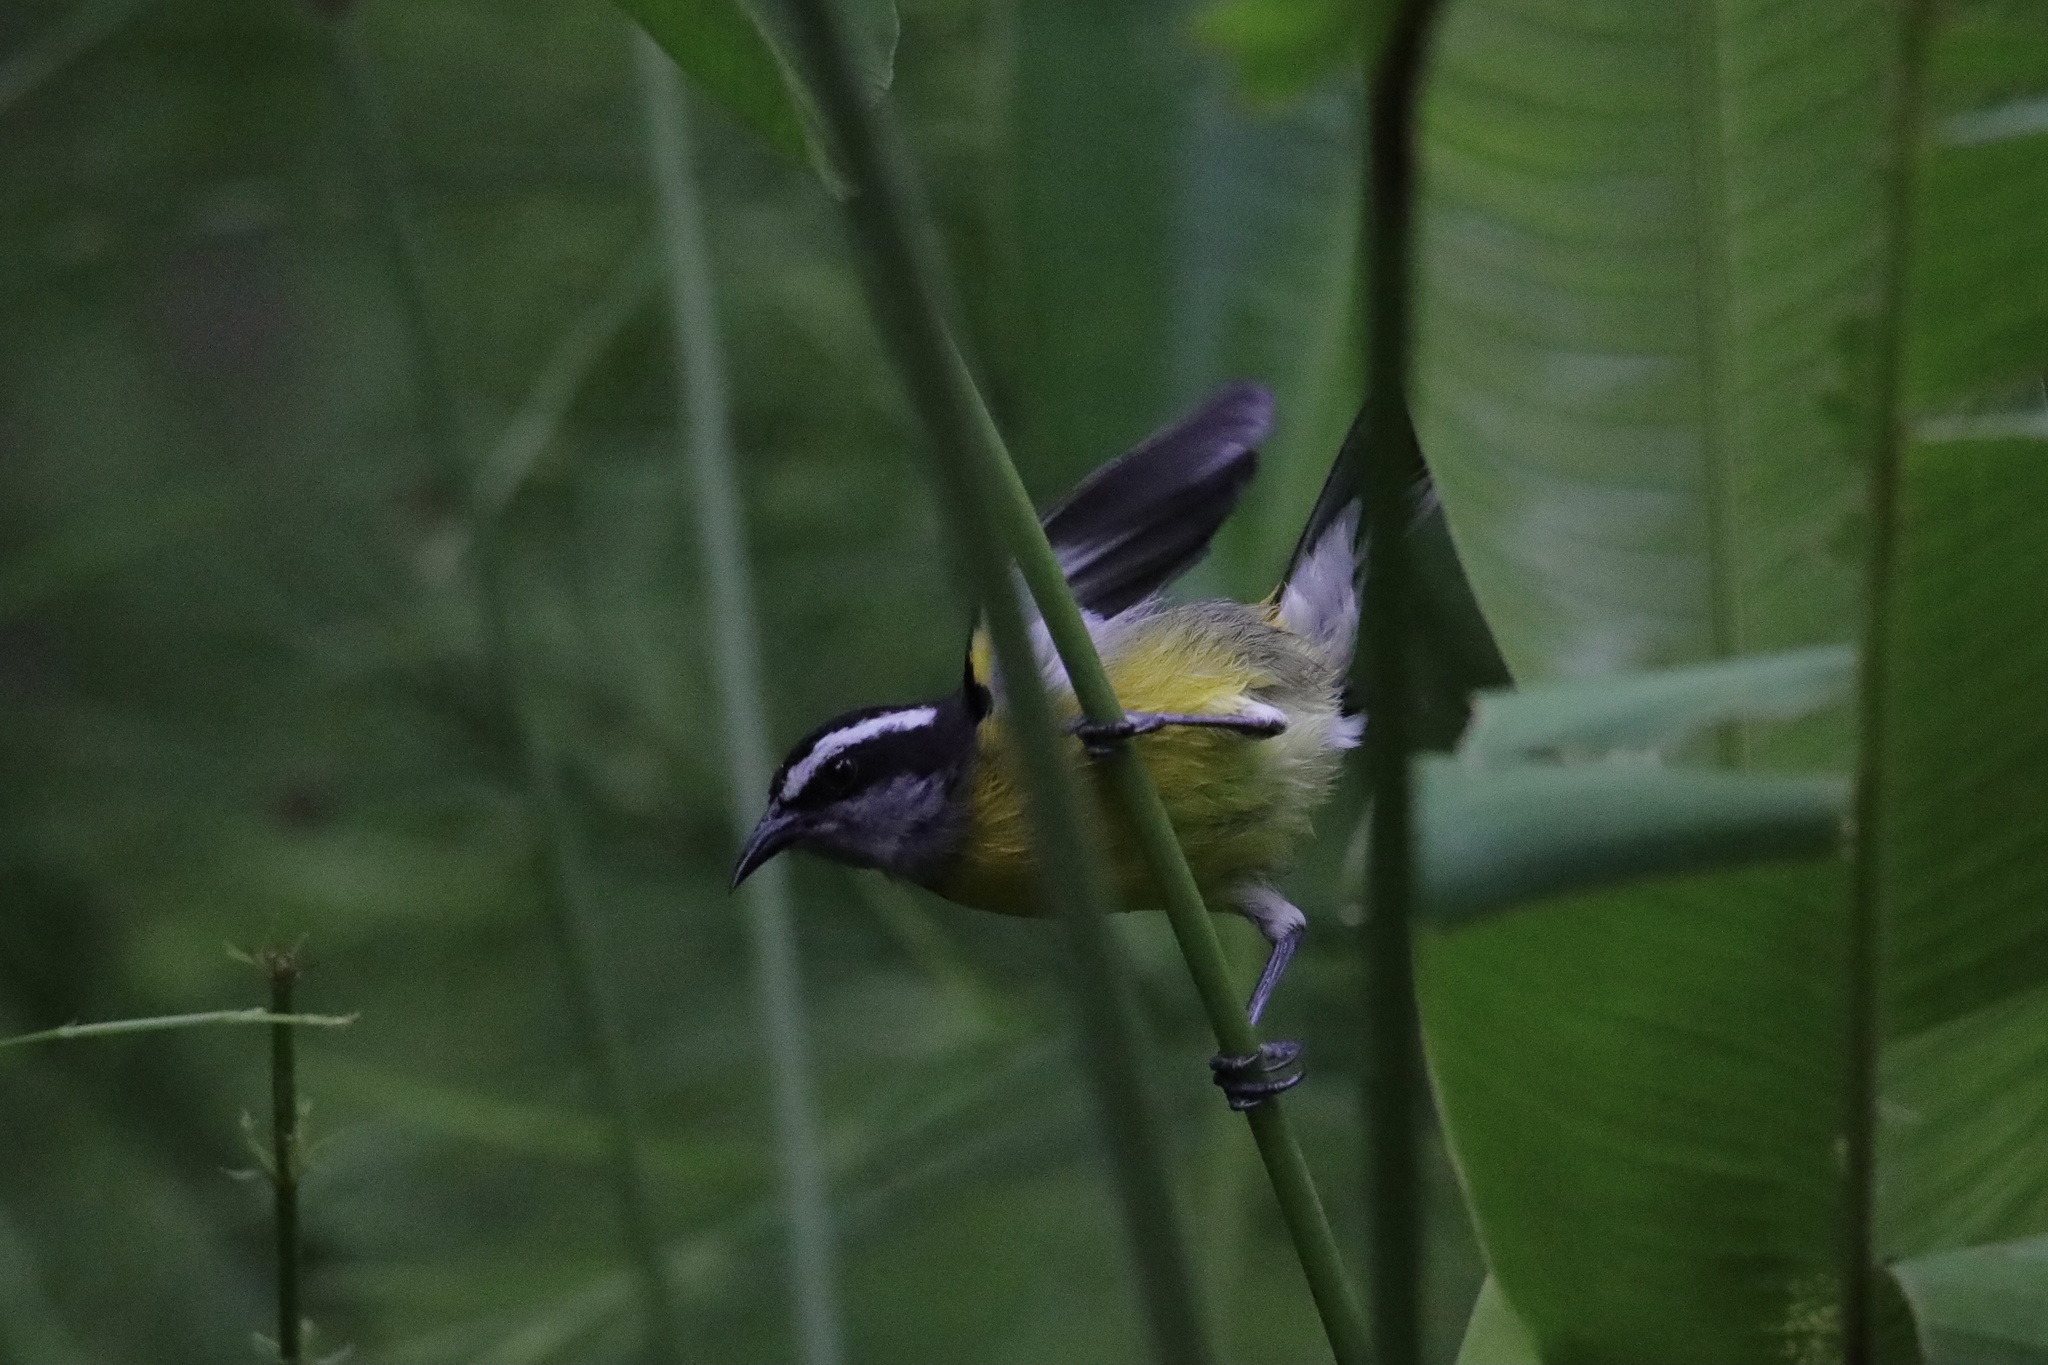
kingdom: Animalia
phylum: Chordata
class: Aves
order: Passeriformes
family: Thraupidae
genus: Coereba
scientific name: Coereba flaveola
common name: Bananaquit
